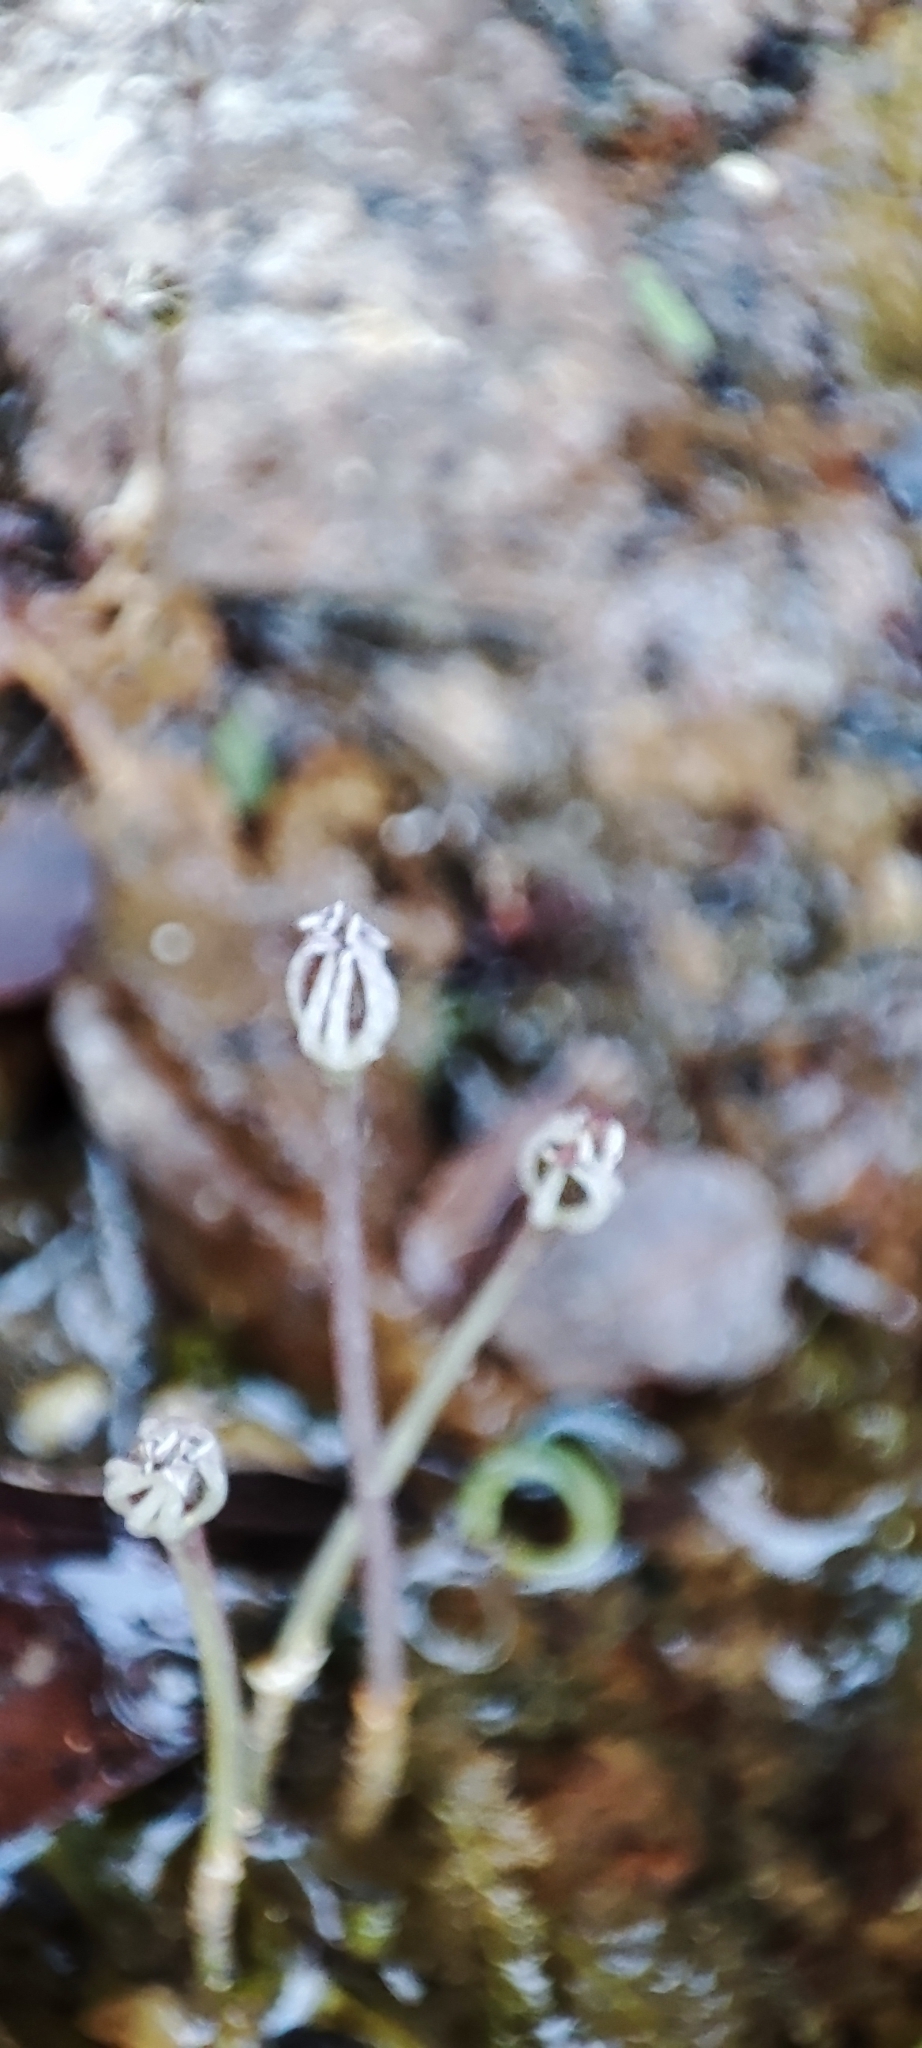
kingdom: Plantae
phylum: Tracheophyta
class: Magnoliopsida
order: Malpighiales
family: Podostemaceae
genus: Marathrum
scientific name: Marathrum foeniculaceum
